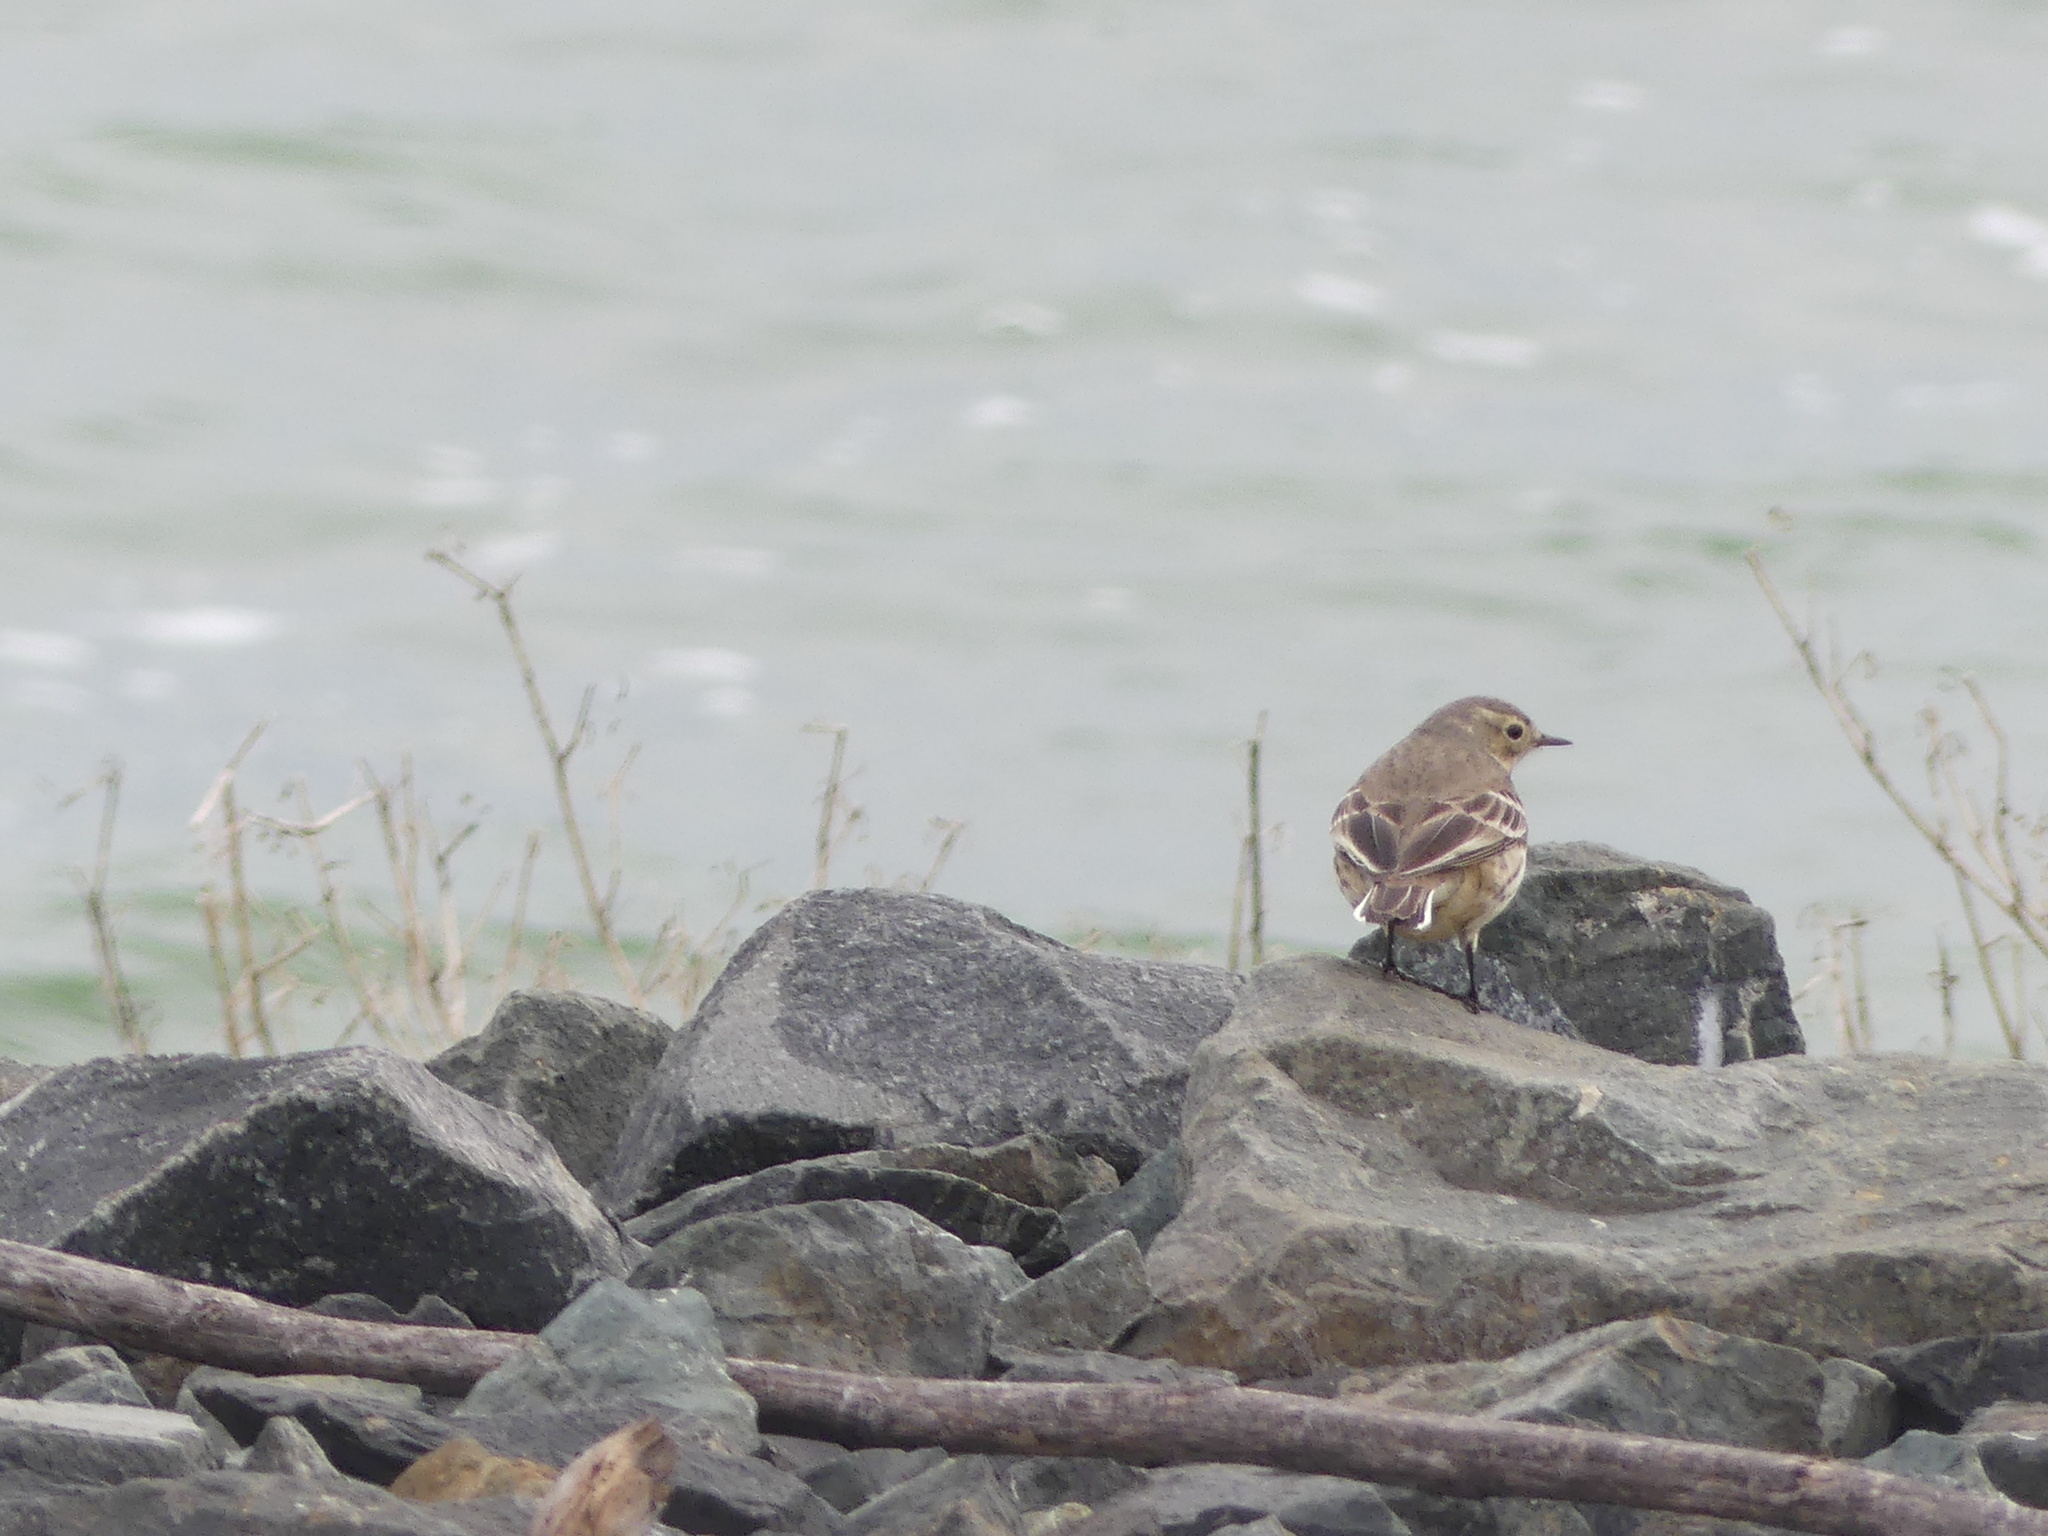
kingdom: Animalia
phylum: Chordata
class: Aves
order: Passeriformes
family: Motacillidae
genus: Anthus
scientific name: Anthus rubescens
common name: Buff-bellied pipit
